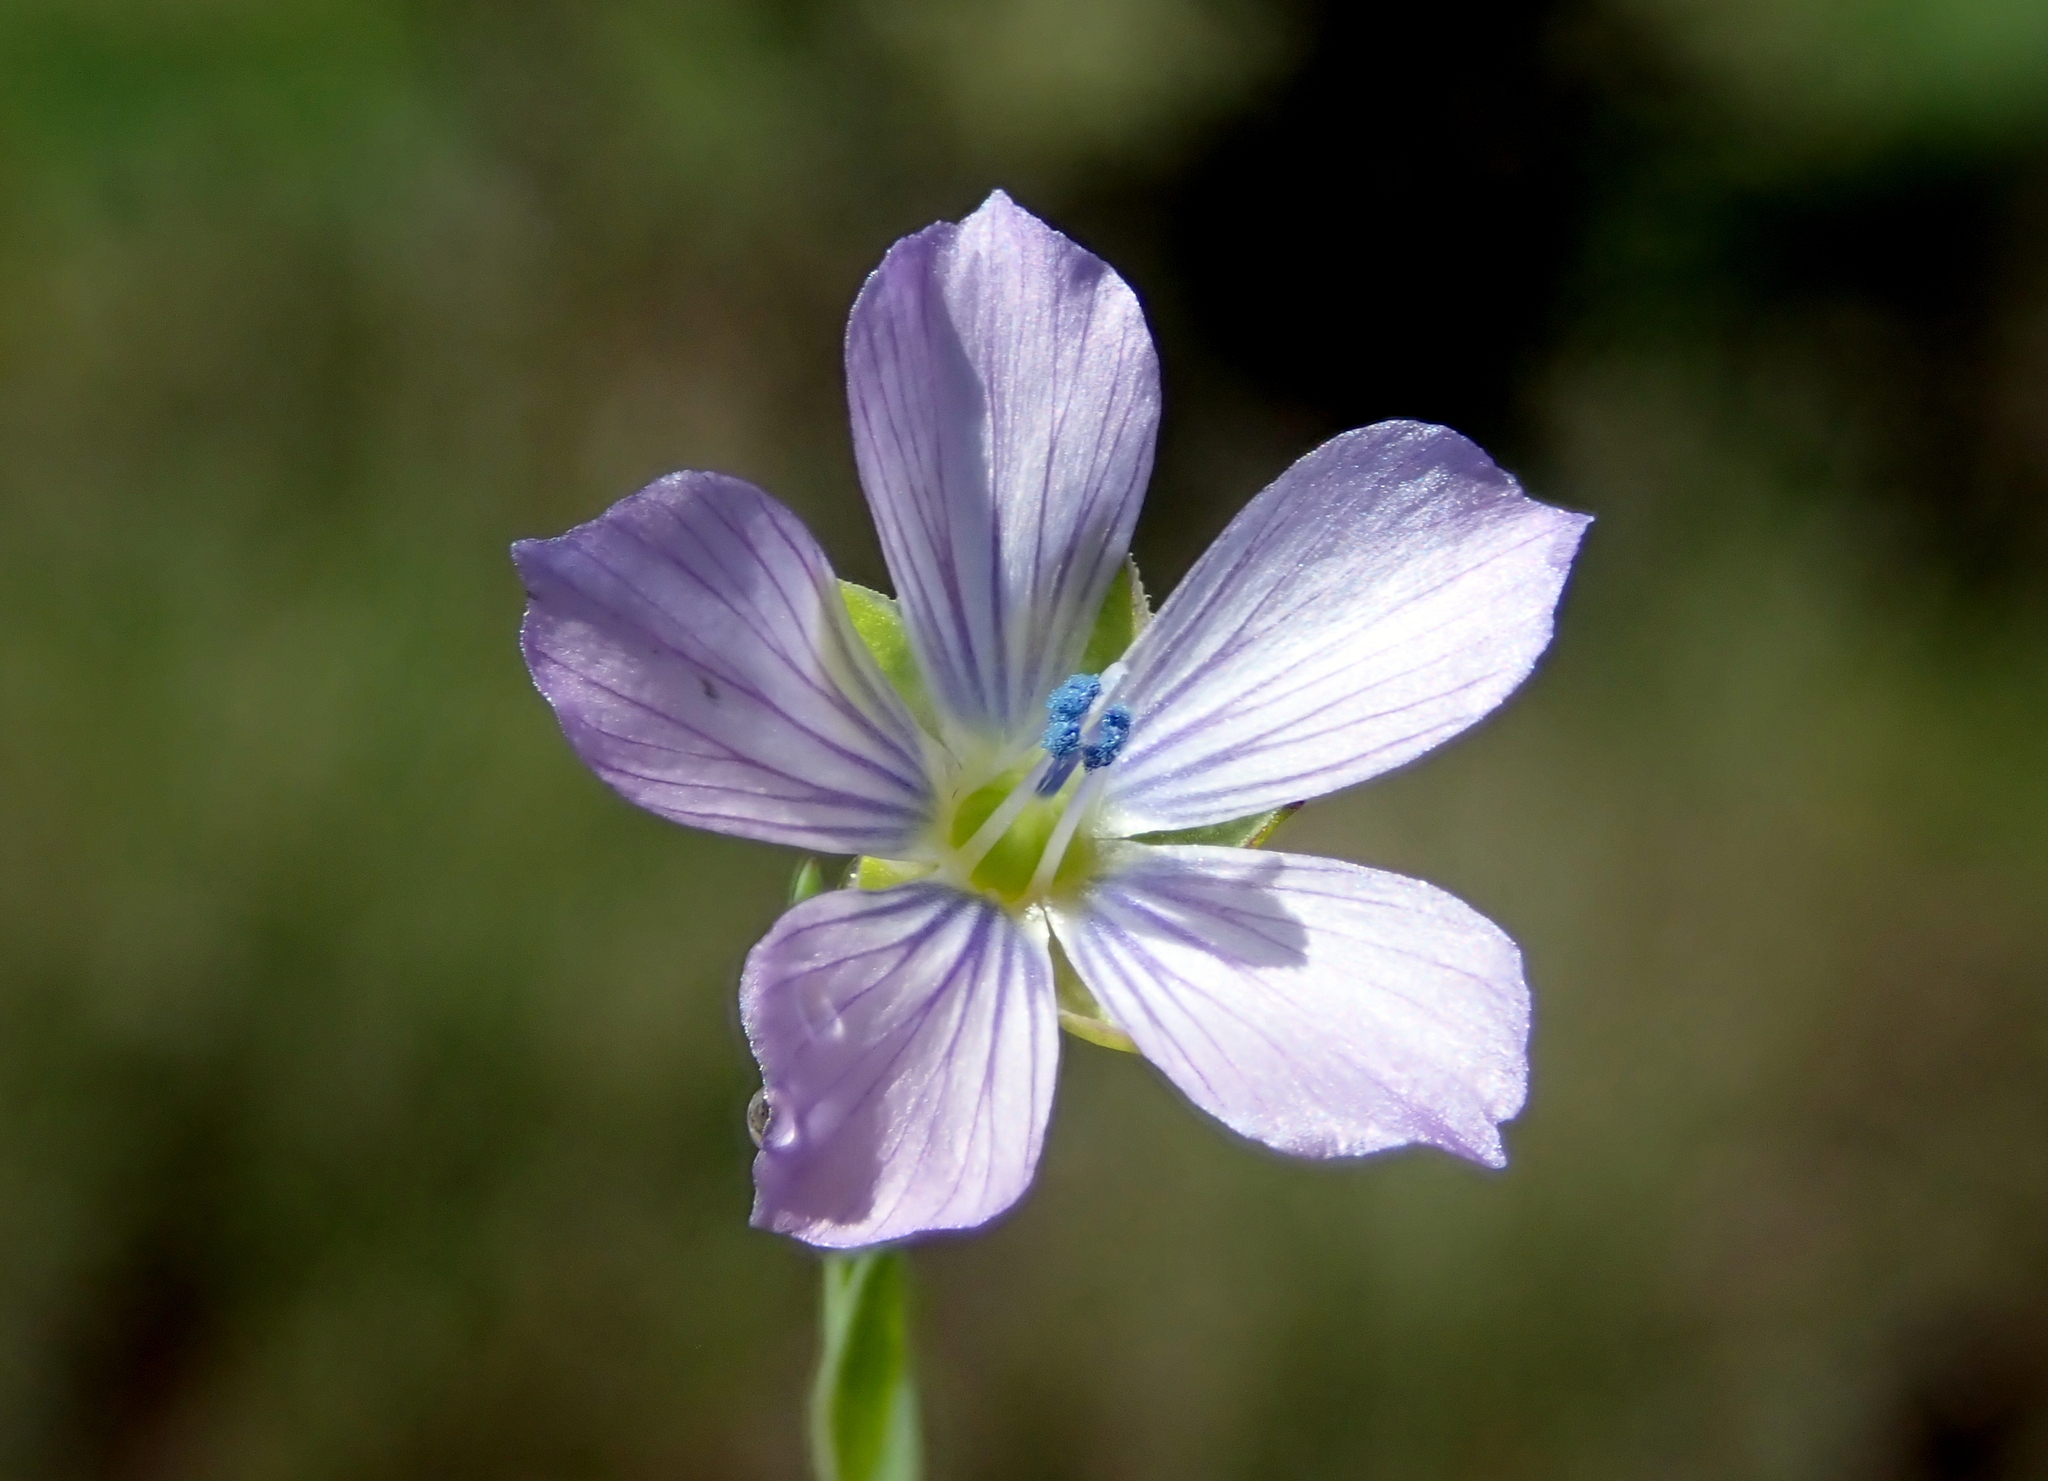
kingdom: Plantae
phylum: Tracheophyta
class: Magnoliopsida
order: Malpighiales
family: Linaceae
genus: Linum
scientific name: Linum bienne
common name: Pale flax
